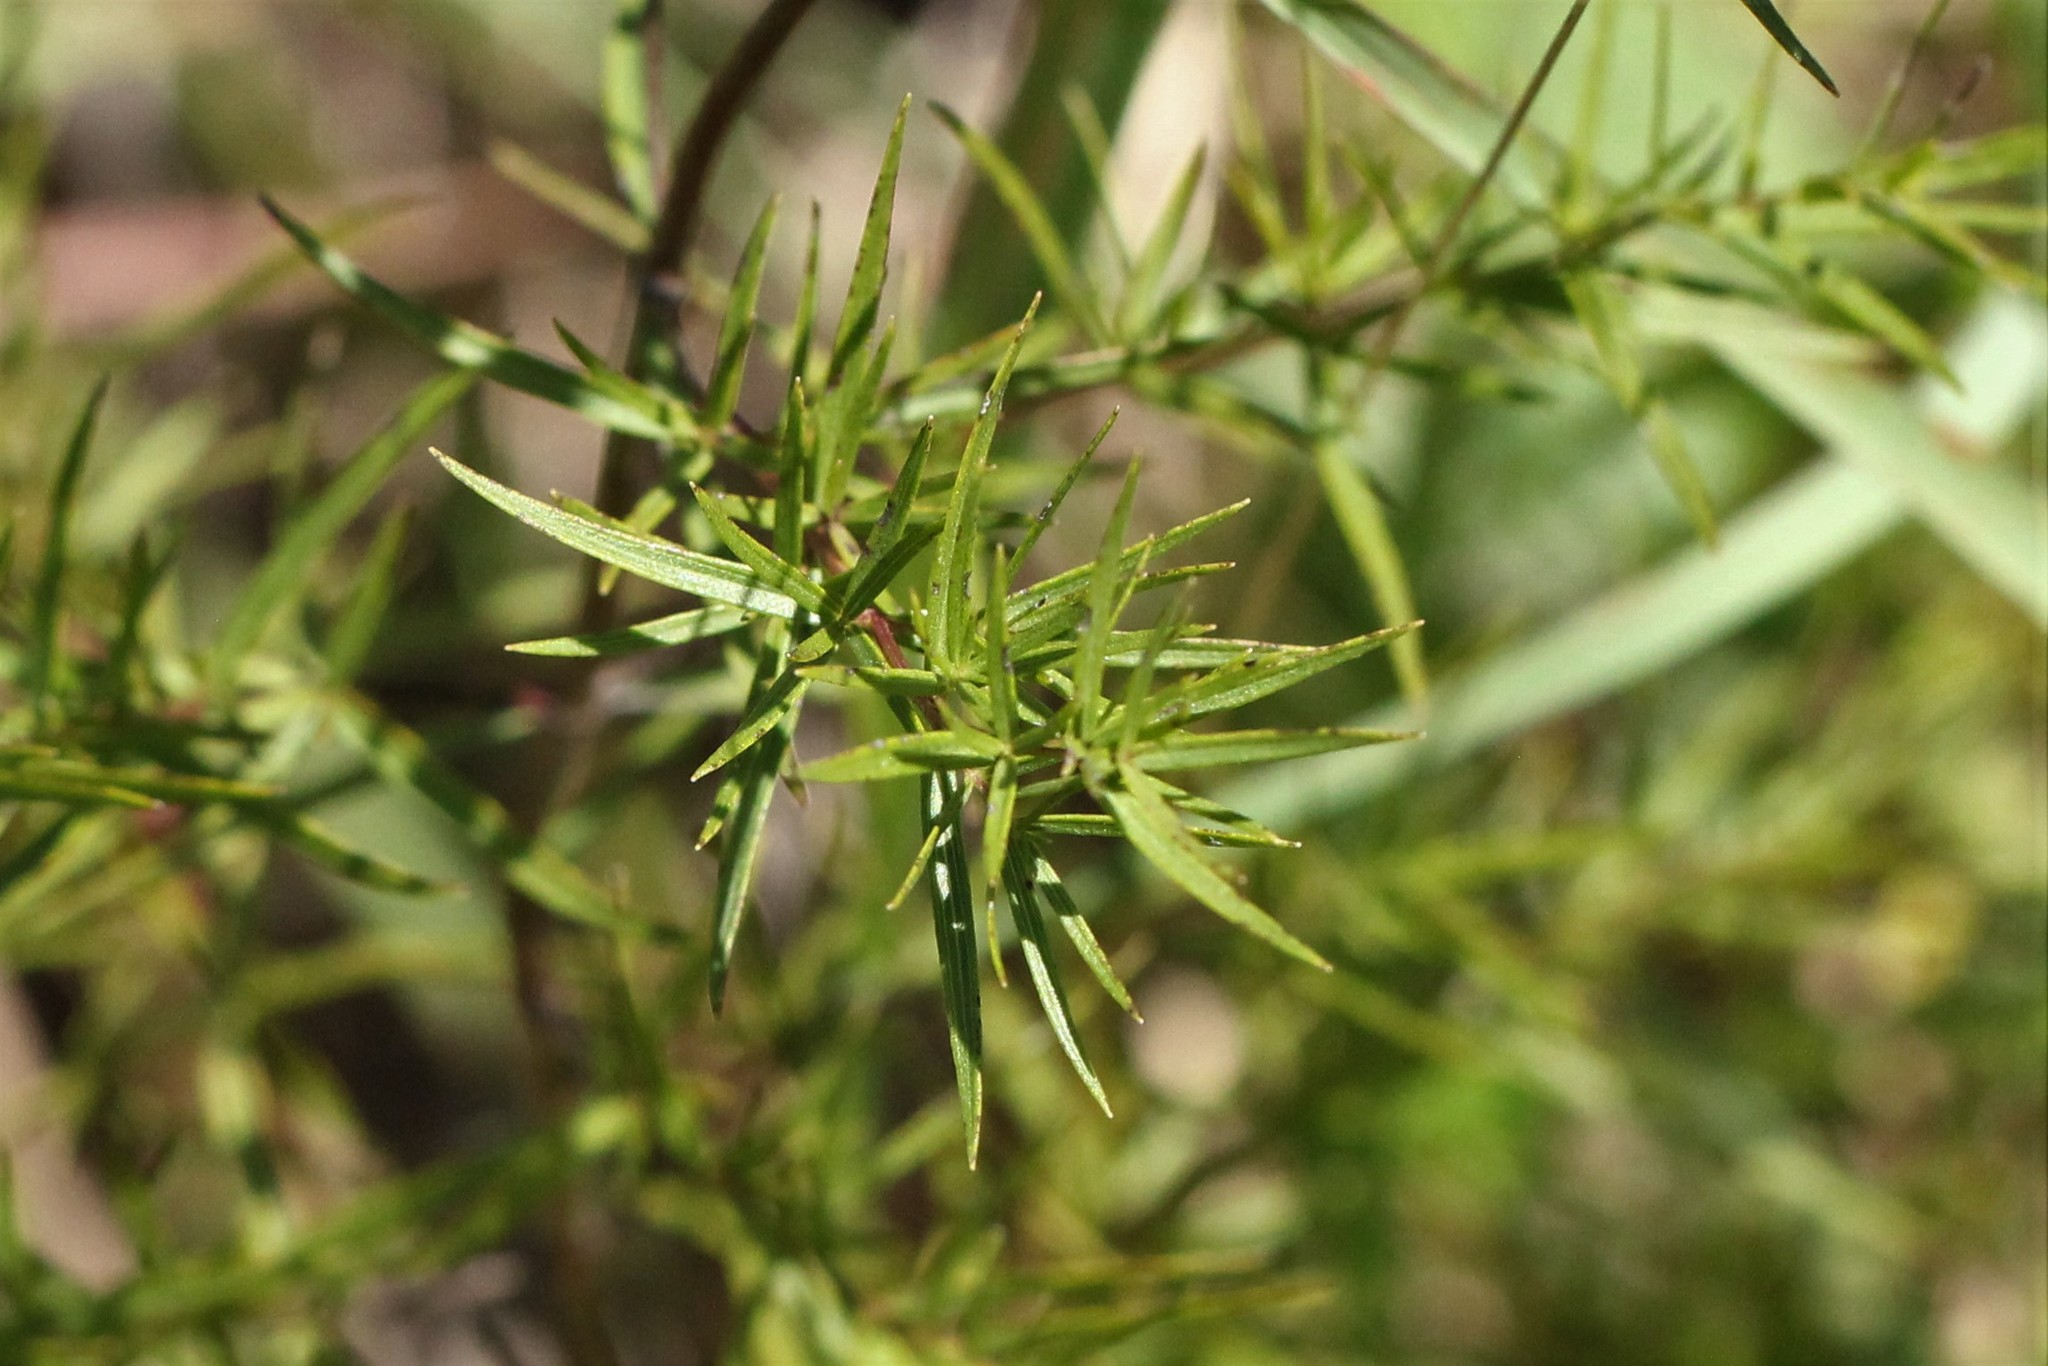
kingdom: Plantae
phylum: Tracheophyta
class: Magnoliopsida
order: Lamiales
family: Lamiaceae
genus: Pycnanthemum
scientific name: Pycnanthemum tenuifolium
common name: Narrow-leaf mountain-mint
